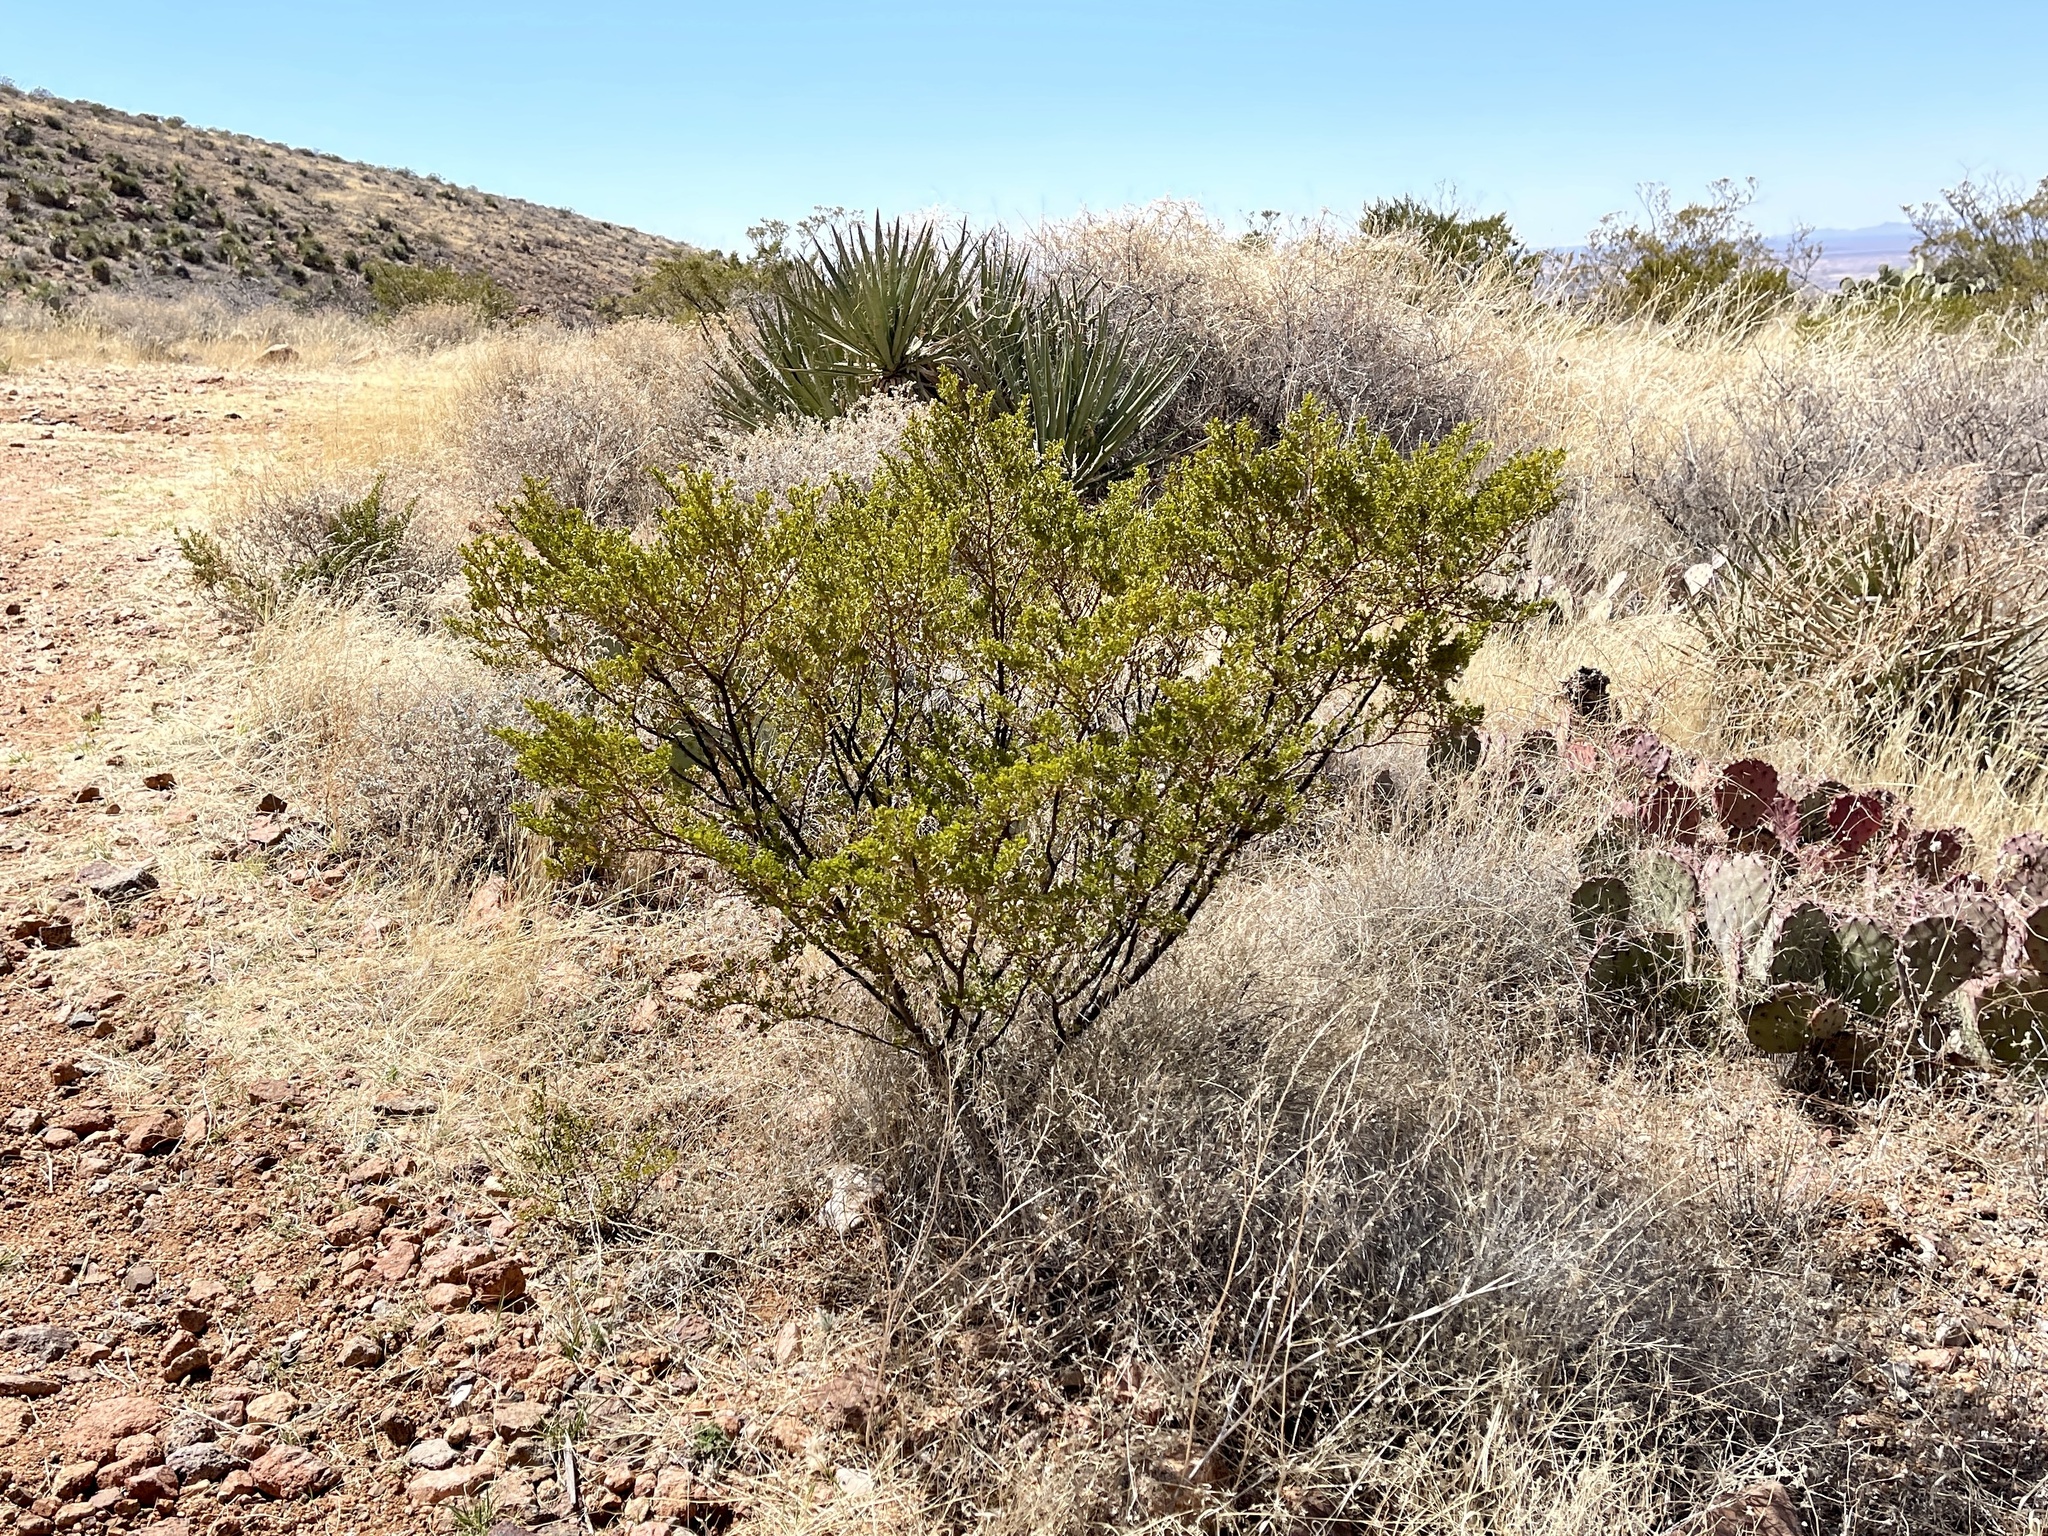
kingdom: Plantae
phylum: Tracheophyta
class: Magnoliopsida
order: Zygophyllales
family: Zygophyllaceae
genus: Larrea
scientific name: Larrea tridentata
